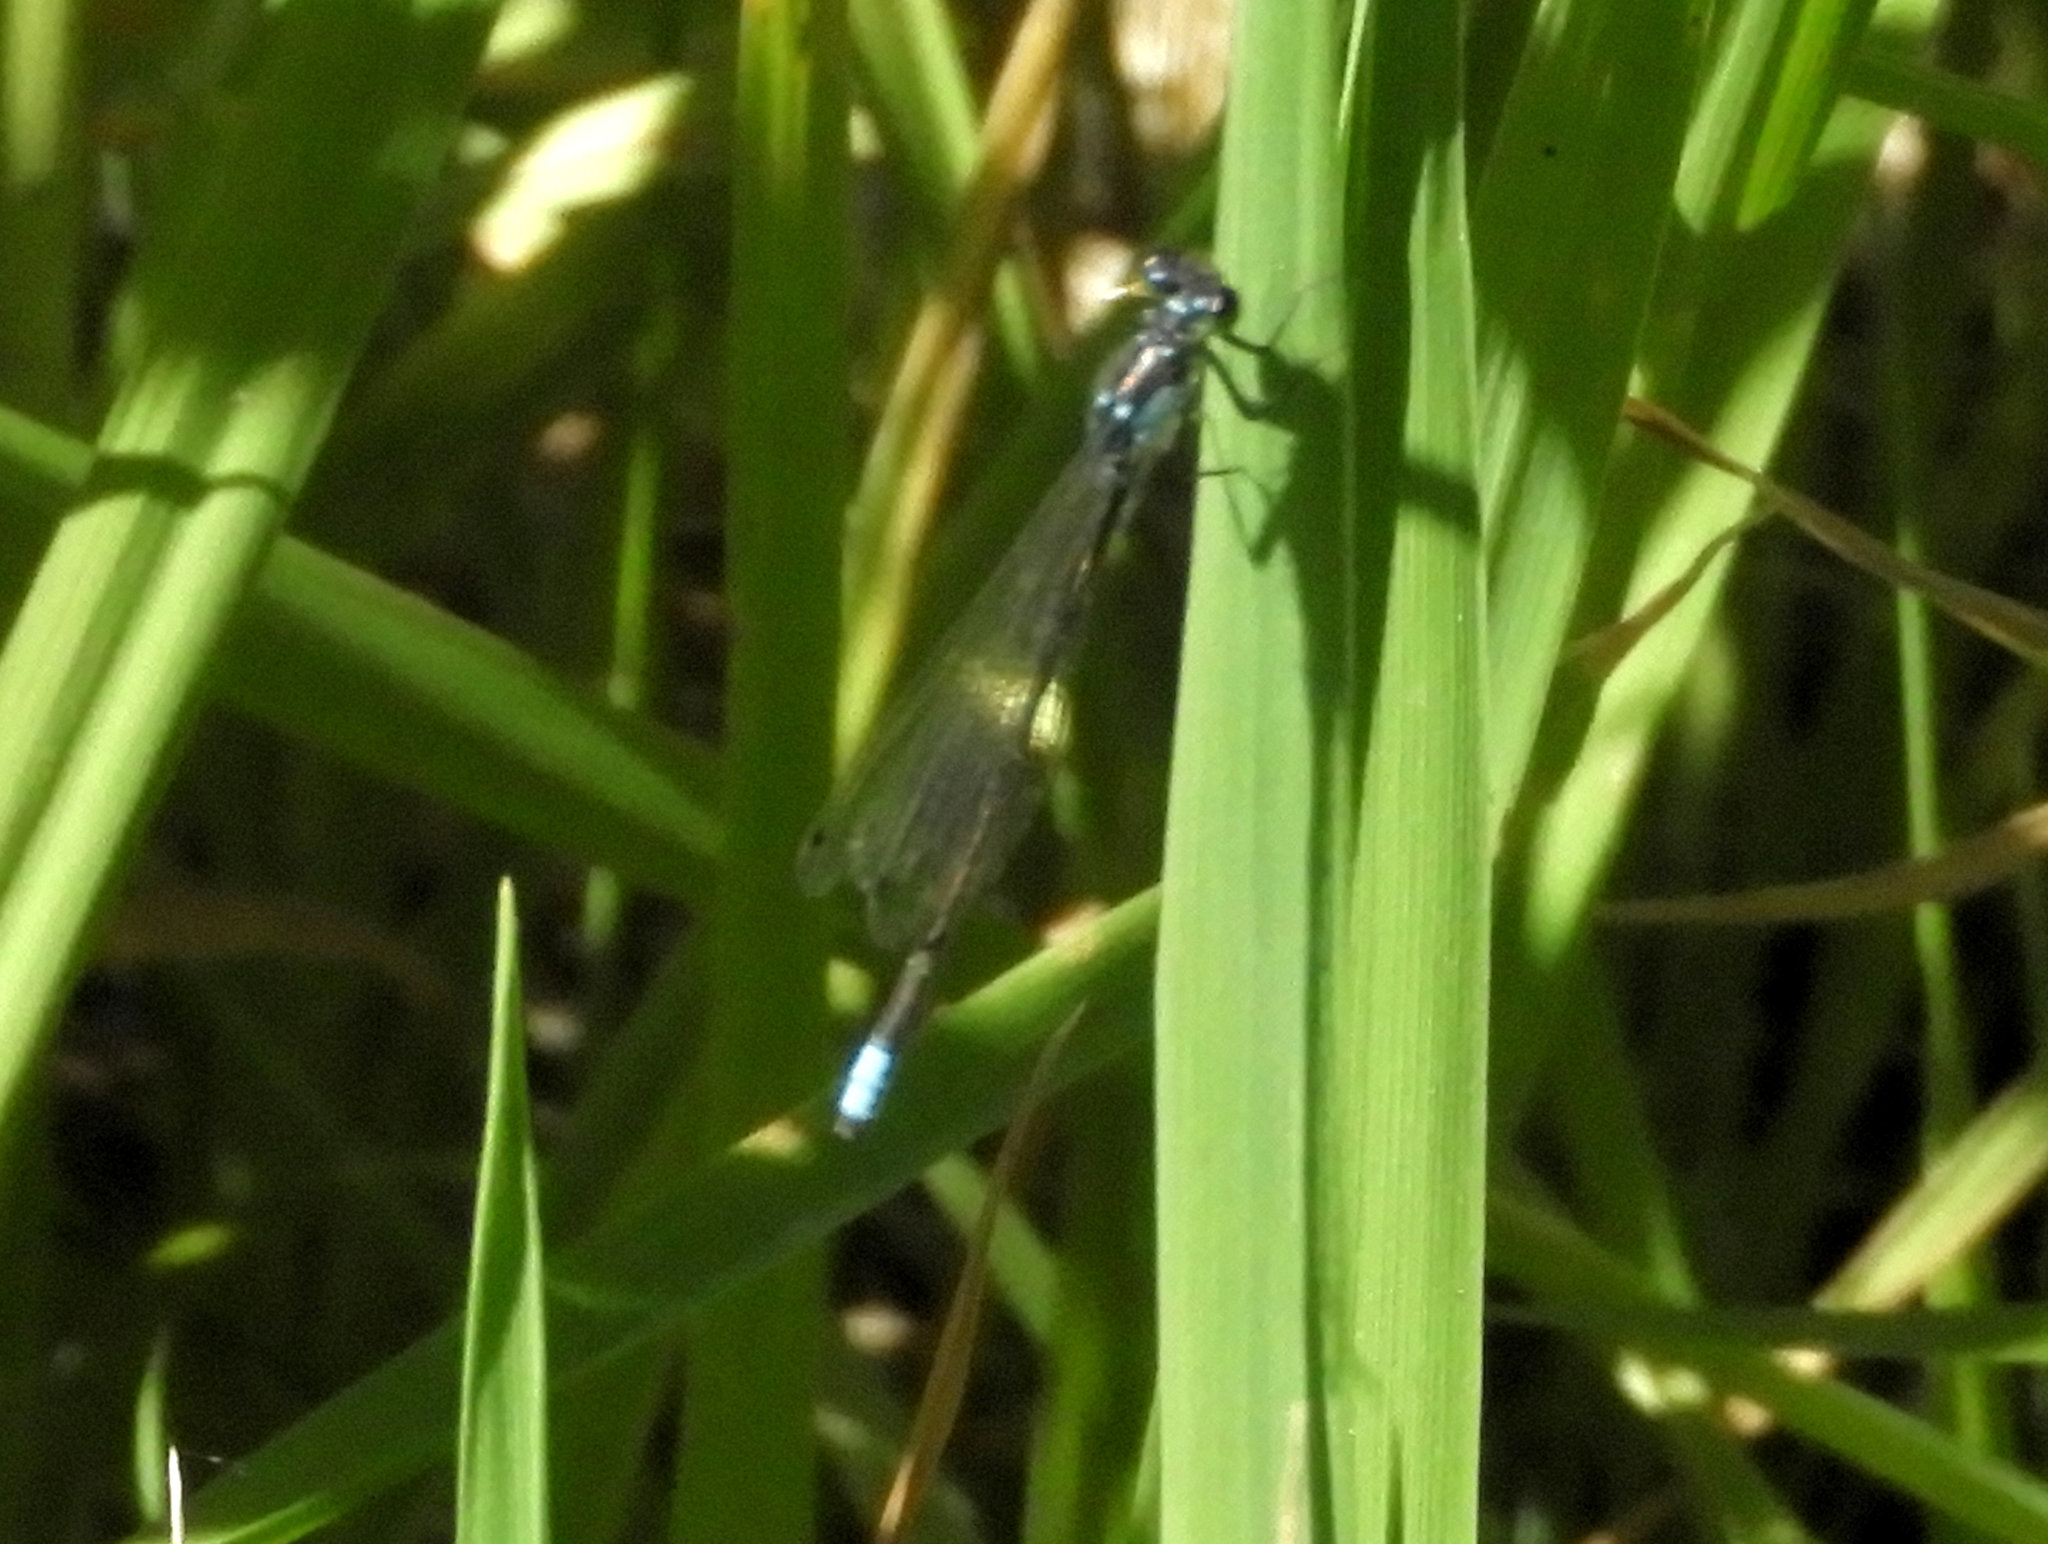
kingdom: Animalia
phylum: Arthropoda
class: Insecta
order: Odonata
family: Coenagrionidae
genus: Ischnura
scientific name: Ischnura cervula
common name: Pacific forktail
